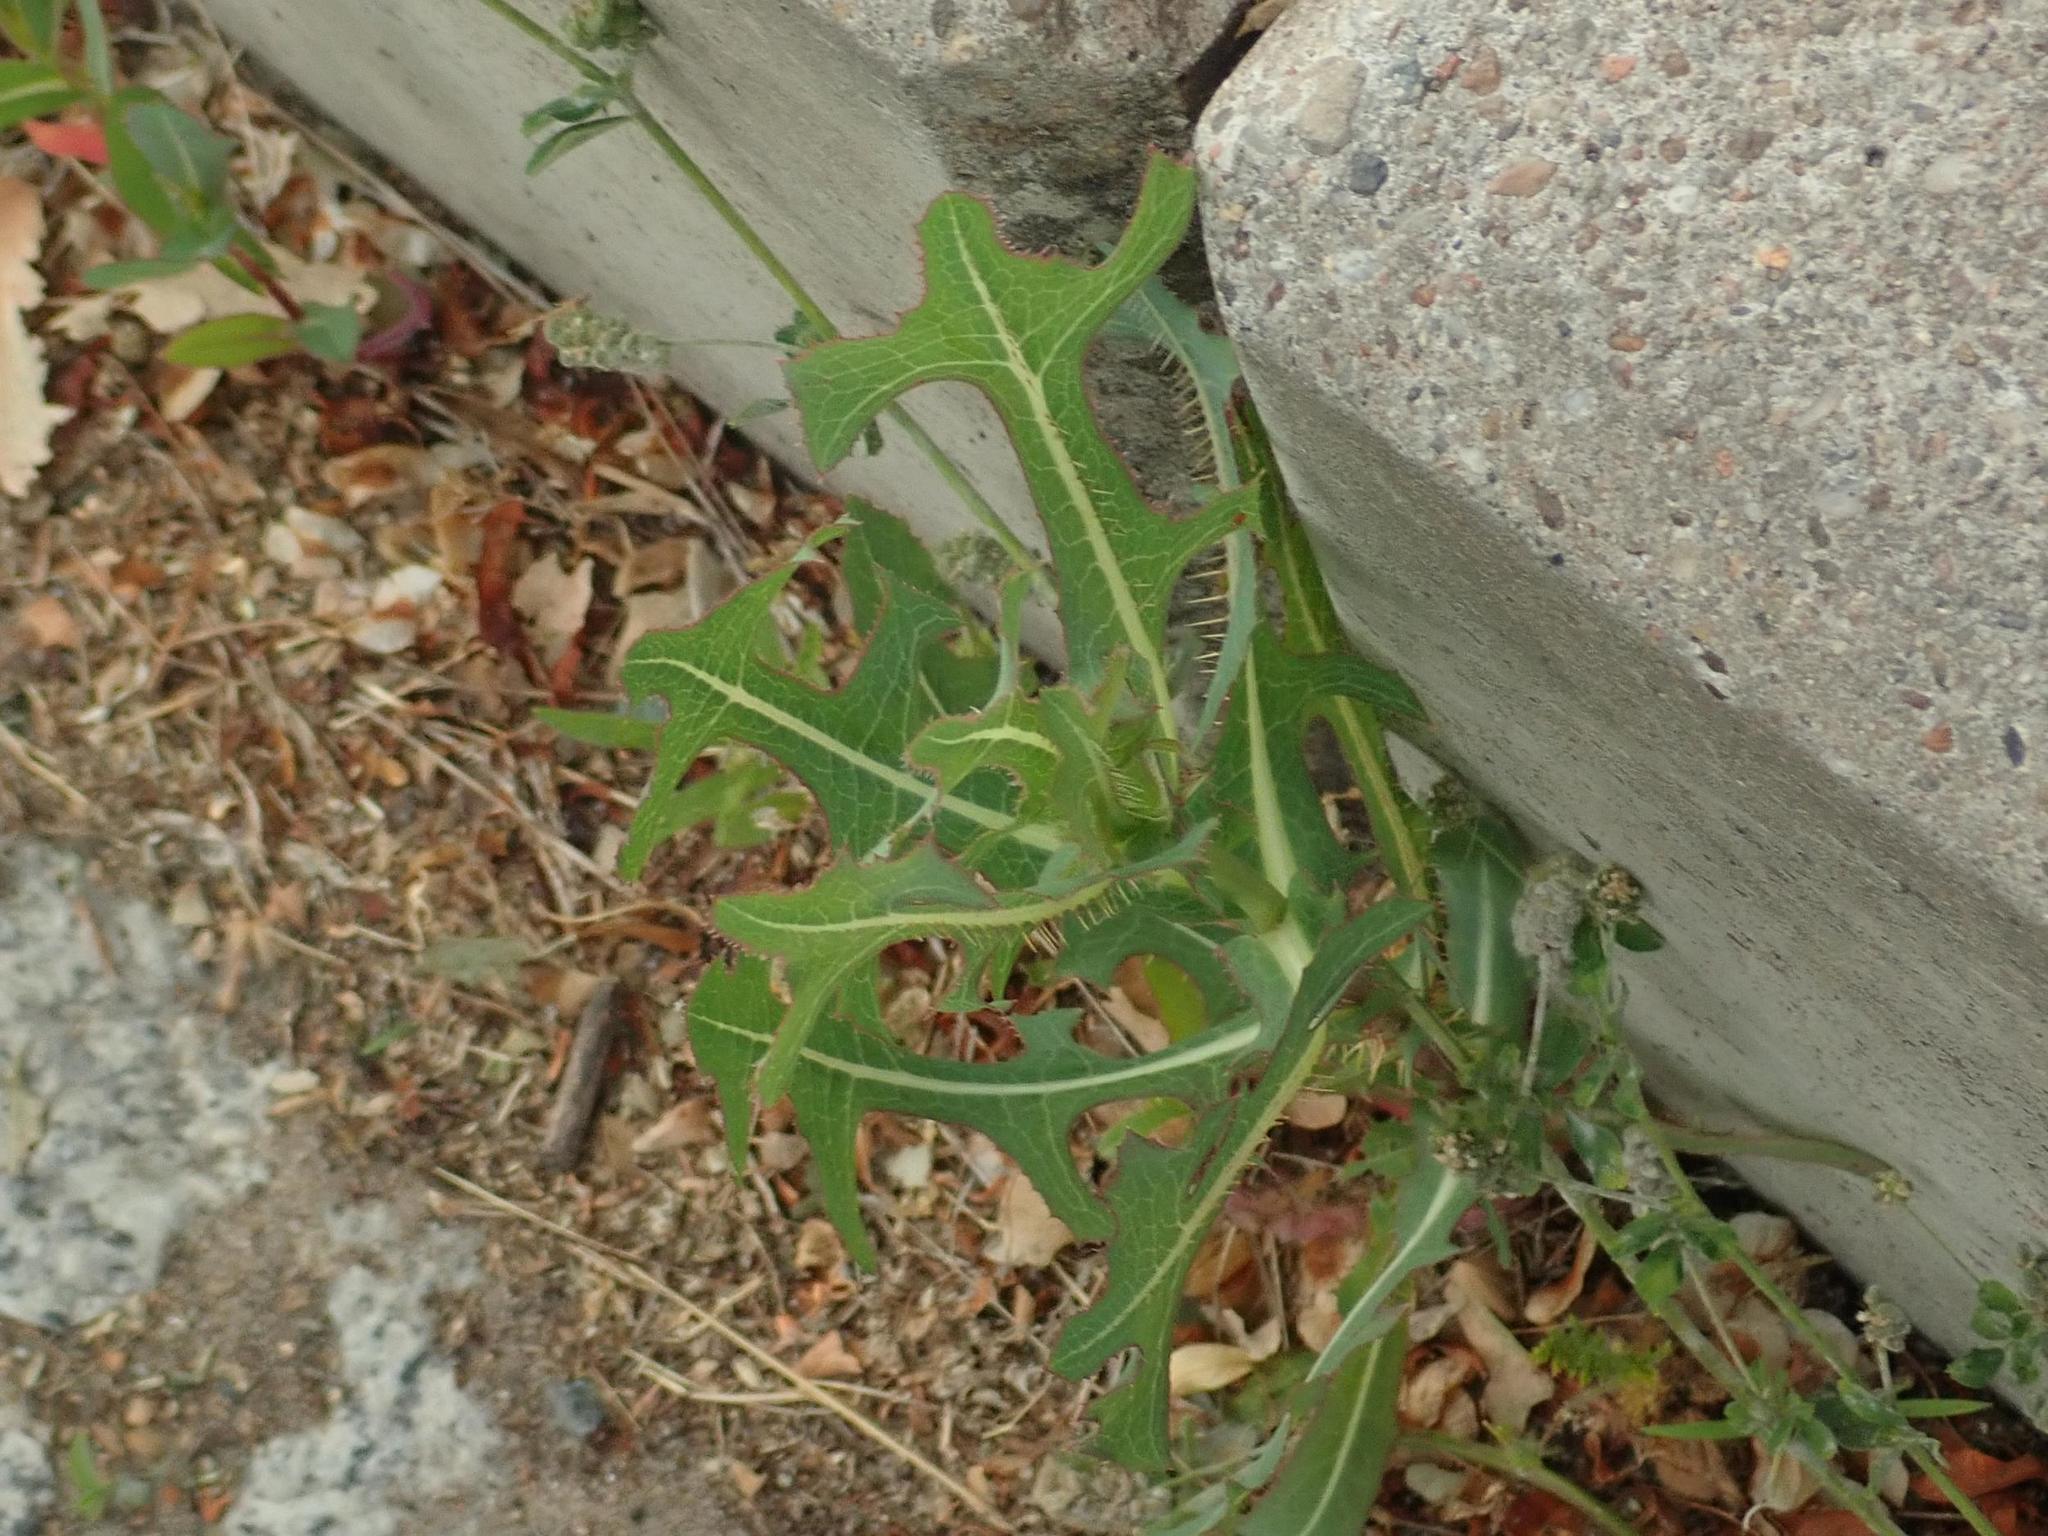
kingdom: Plantae
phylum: Tracheophyta
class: Magnoliopsida
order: Asterales
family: Asteraceae
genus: Lactuca
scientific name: Lactuca serriola
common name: Prickly lettuce
